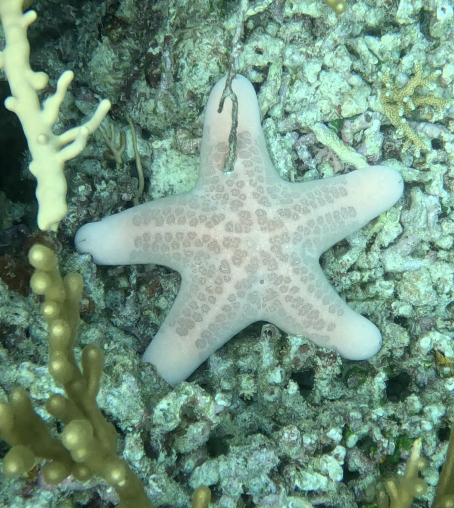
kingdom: Animalia
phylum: Echinodermata
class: Asteroidea
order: Valvatida
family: Oreasteridae
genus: Choriaster
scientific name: Choriaster granulatus
